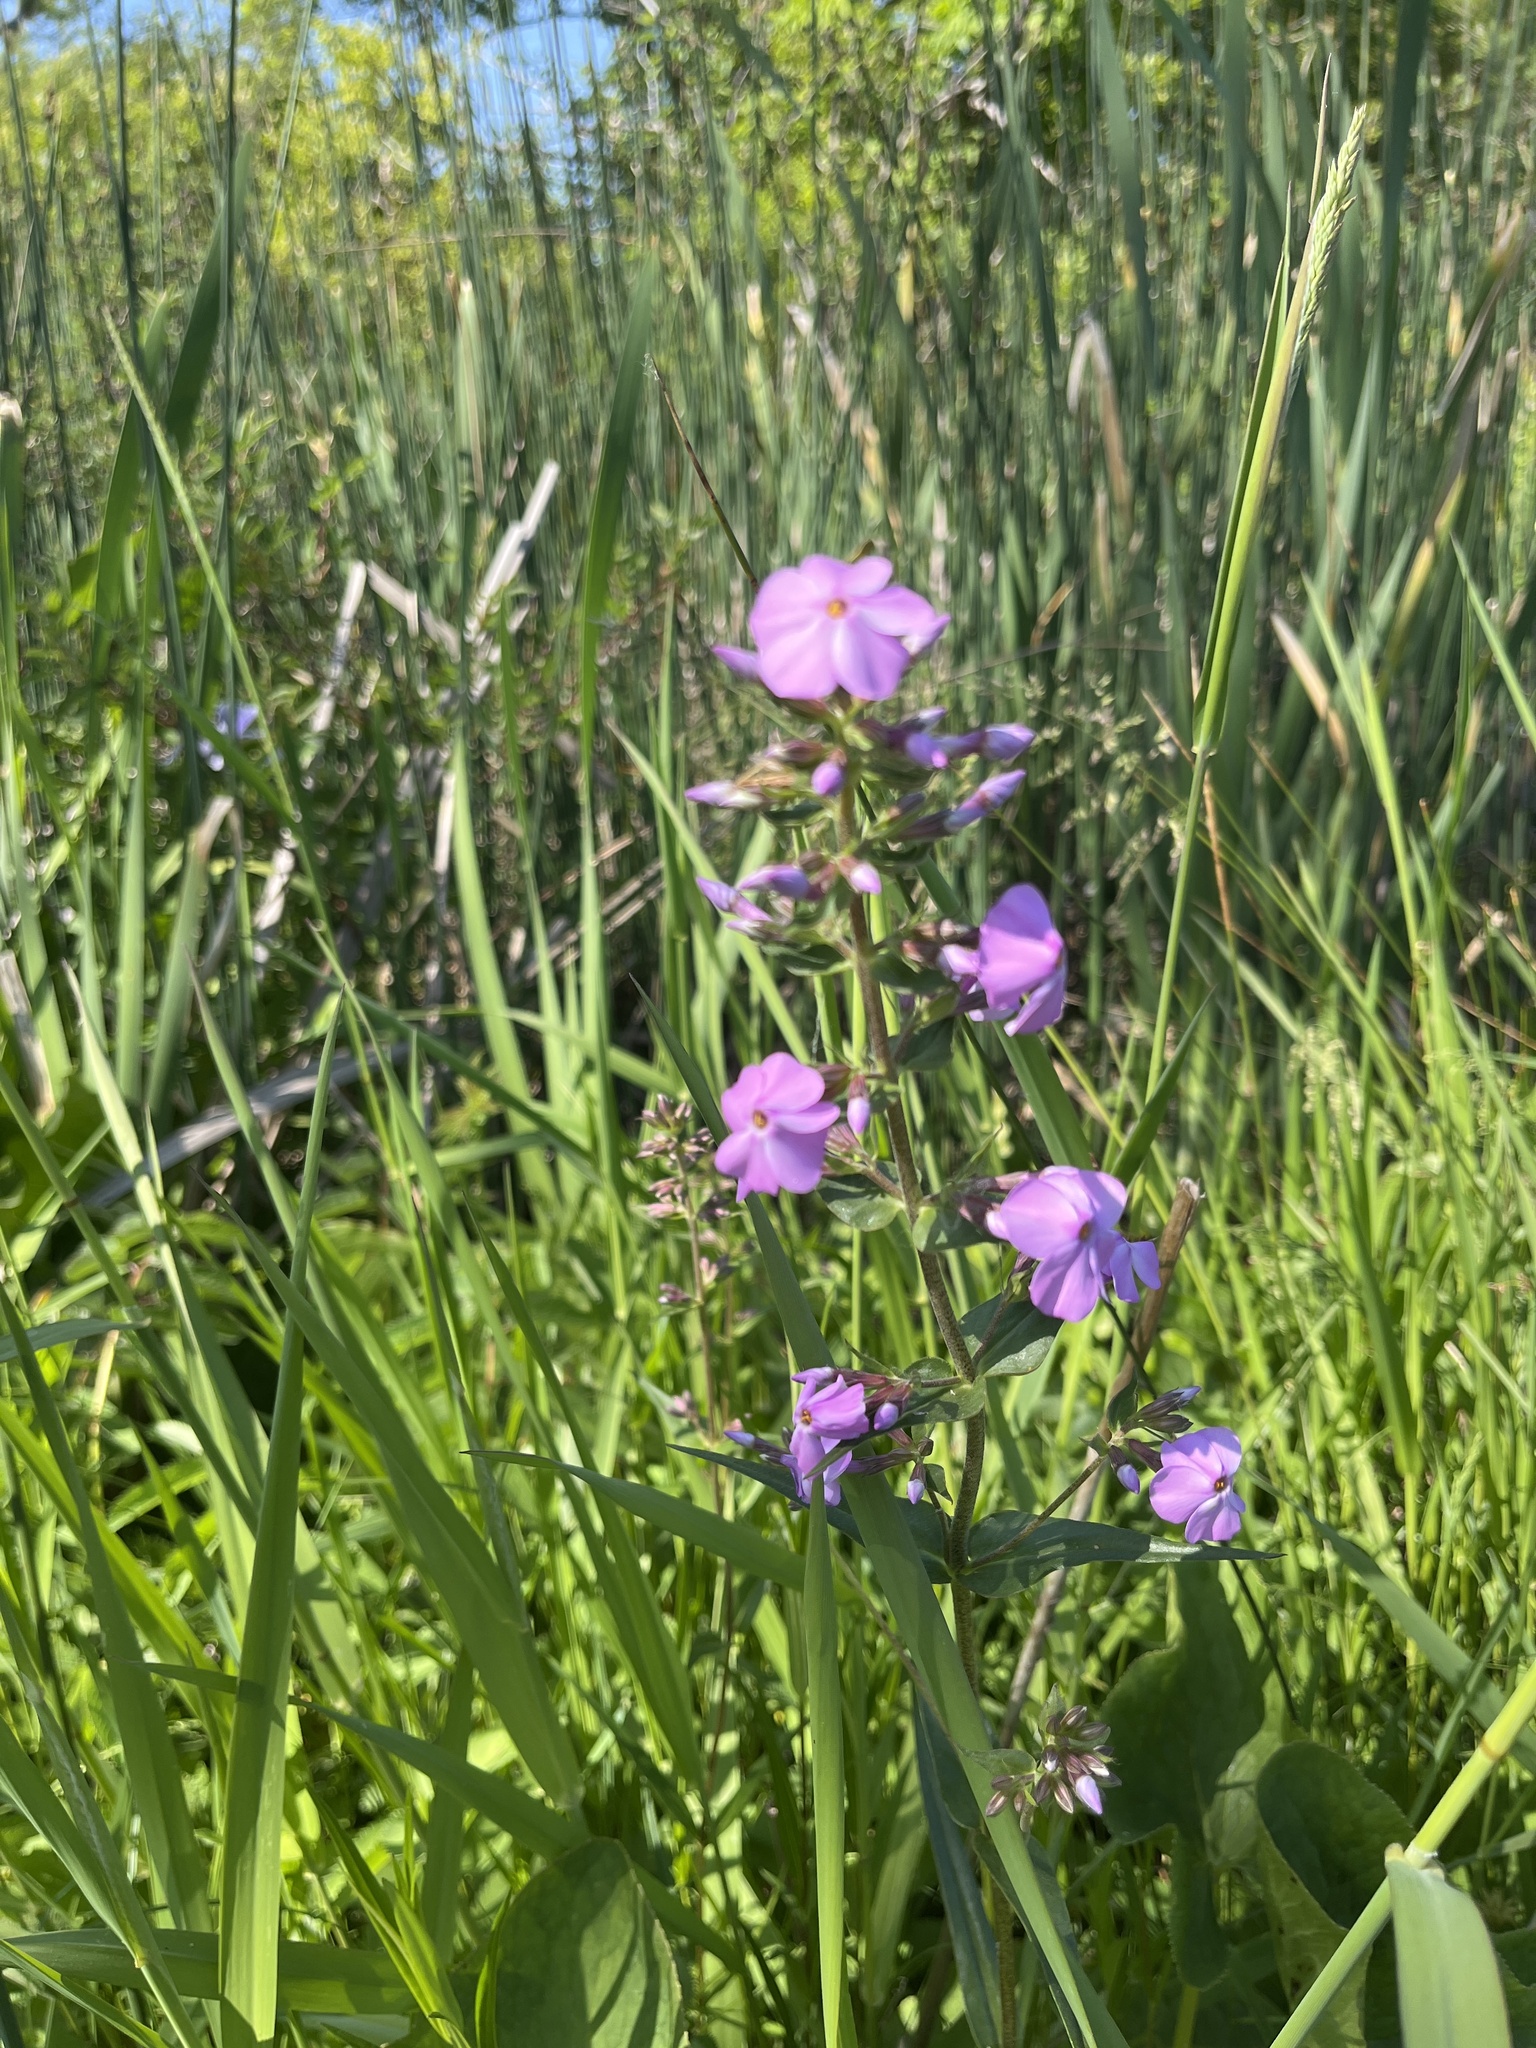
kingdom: Plantae
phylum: Tracheophyta
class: Magnoliopsida
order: Ericales
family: Polemoniaceae
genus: Phlox
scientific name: Phlox maculata
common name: Meadow phlox
